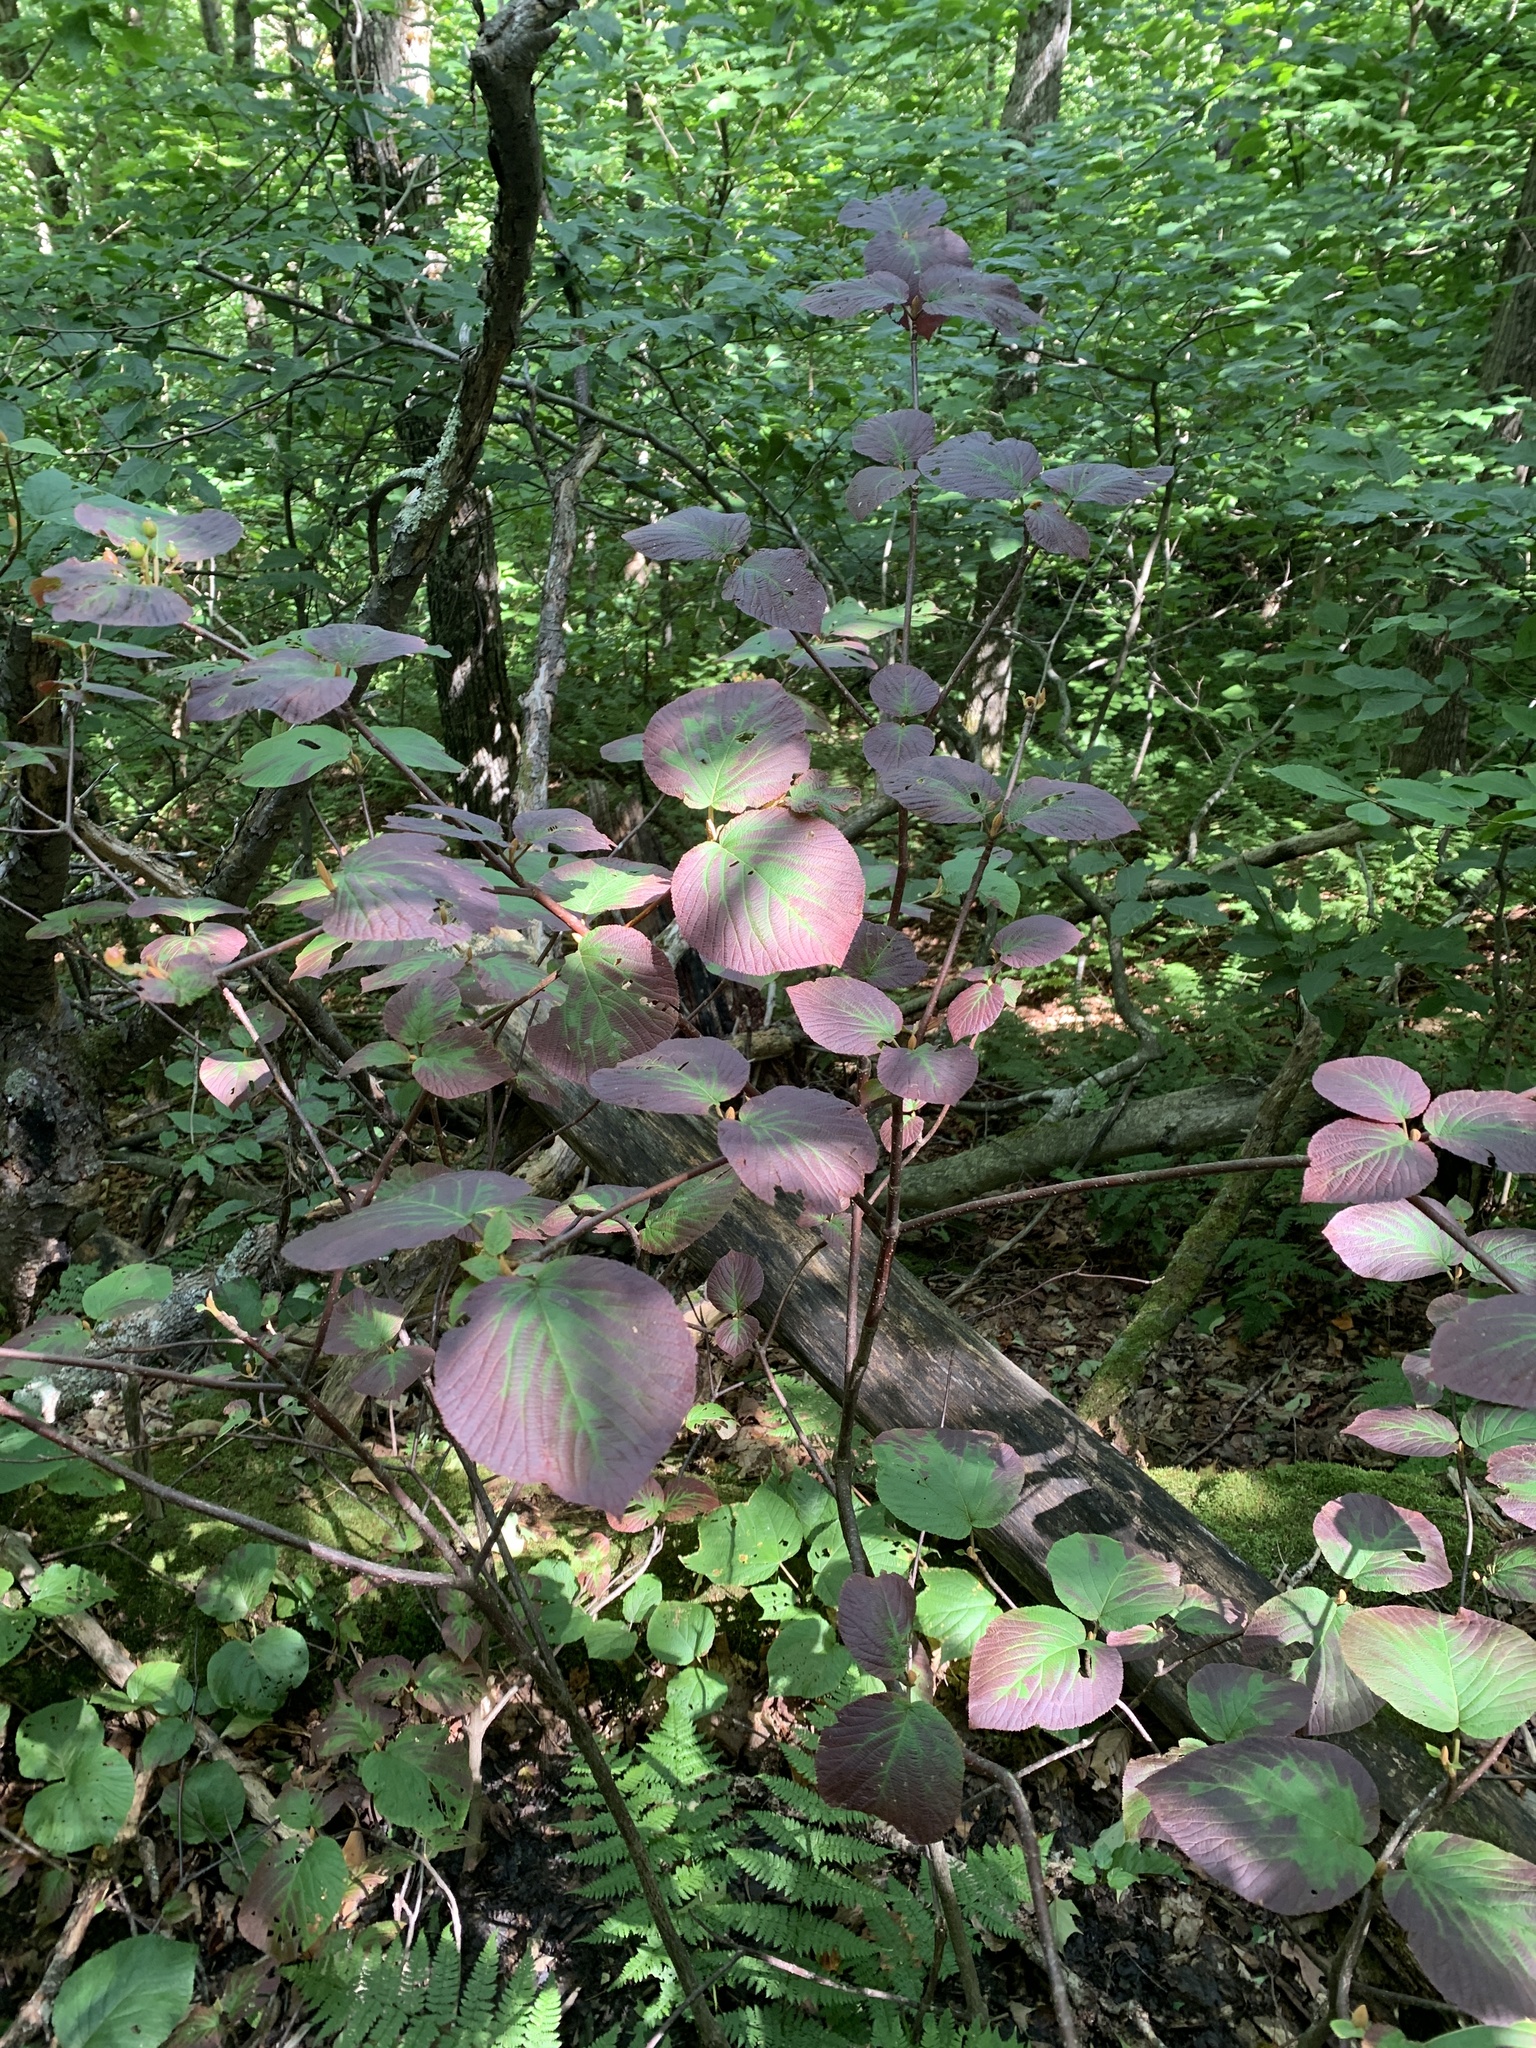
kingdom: Plantae
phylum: Tracheophyta
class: Magnoliopsida
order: Dipsacales
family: Viburnaceae
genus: Viburnum
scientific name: Viburnum lantanoides
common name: Hobblebush
